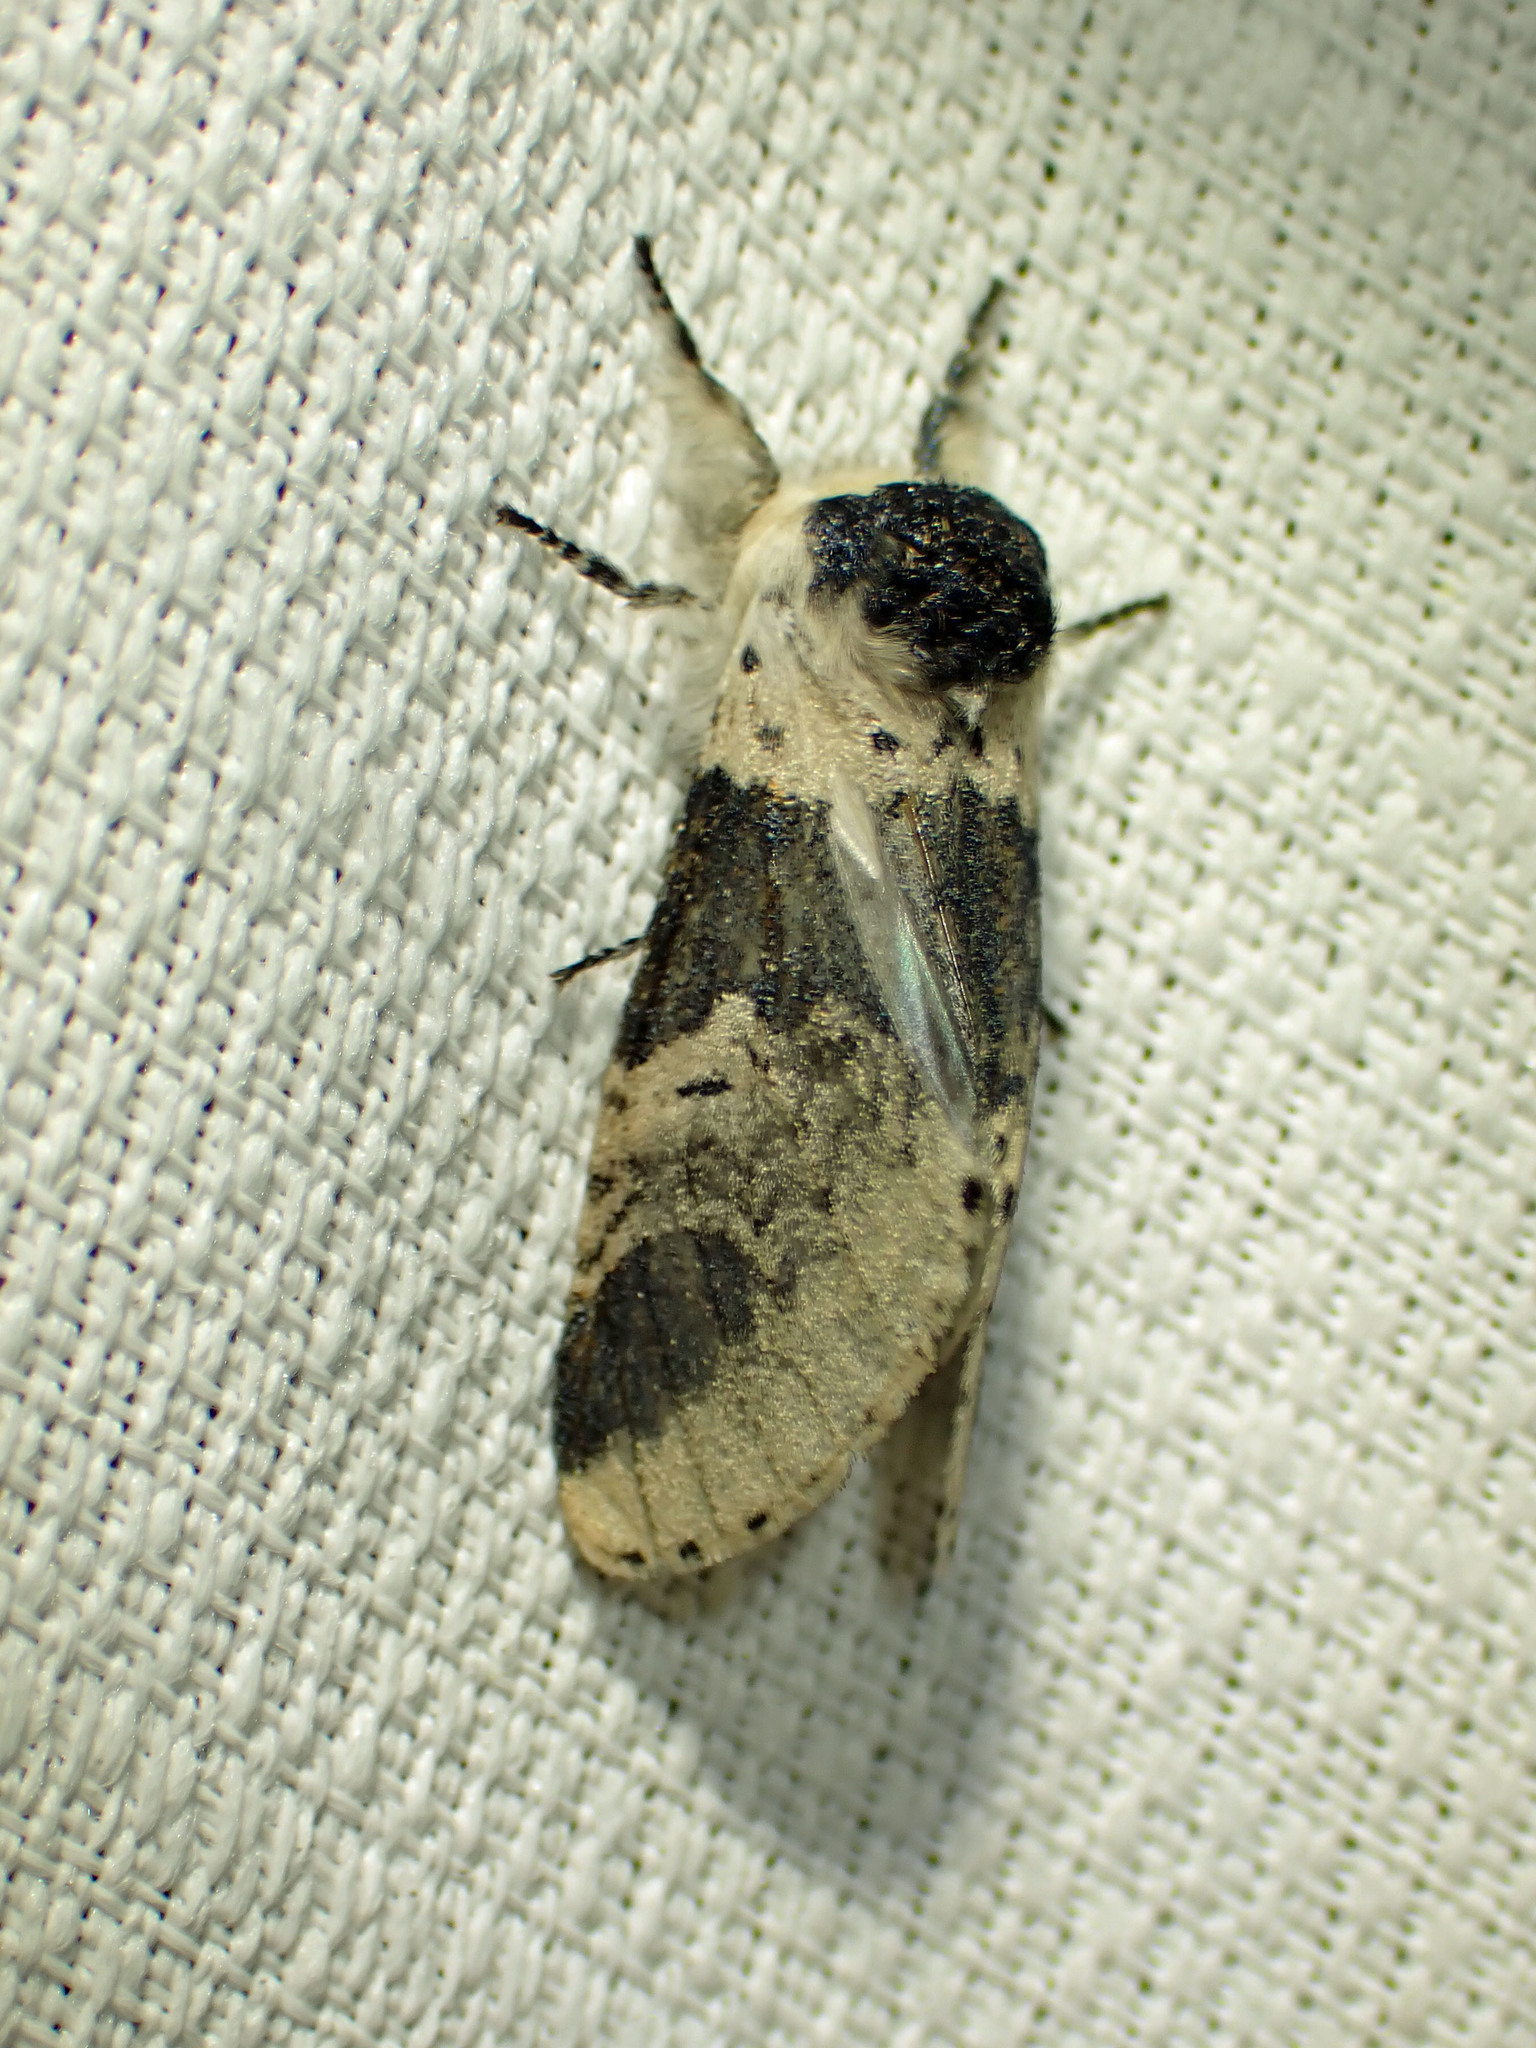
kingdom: Animalia
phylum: Arthropoda
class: Insecta
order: Lepidoptera
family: Notodontidae
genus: Furcula
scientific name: Furcula modesta
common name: Modest furcula moth
